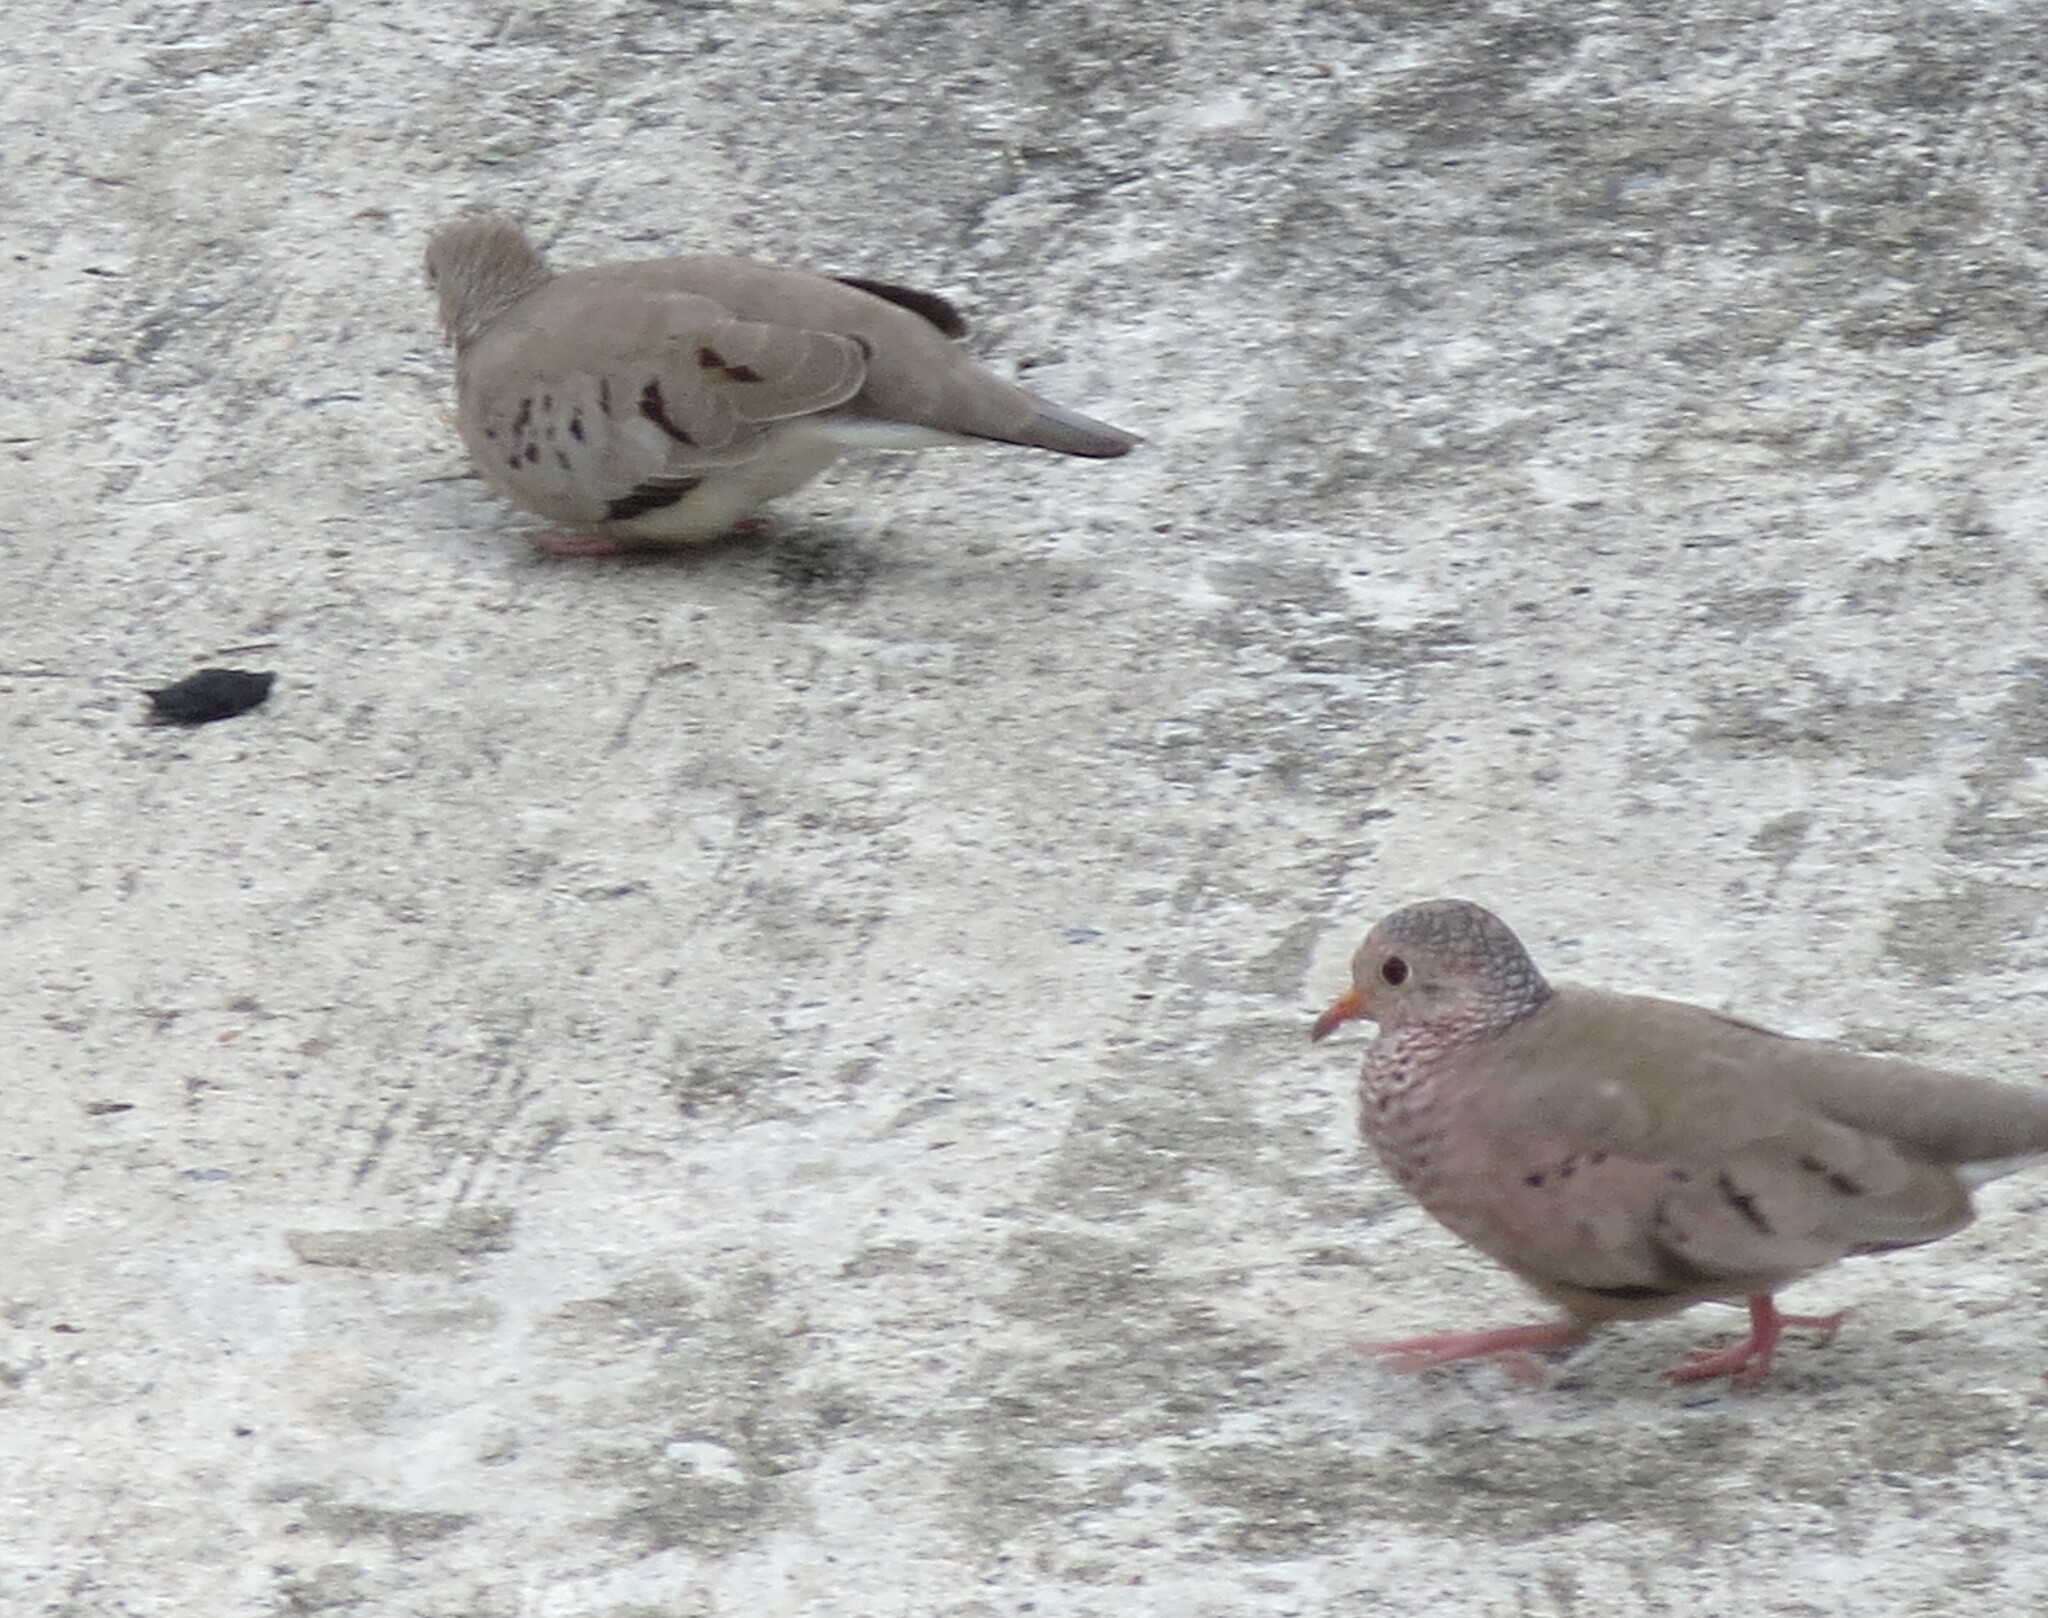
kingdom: Animalia
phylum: Chordata
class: Aves
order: Columbiformes
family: Columbidae
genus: Columbina
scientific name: Columbina passerina
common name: Common ground-dove
